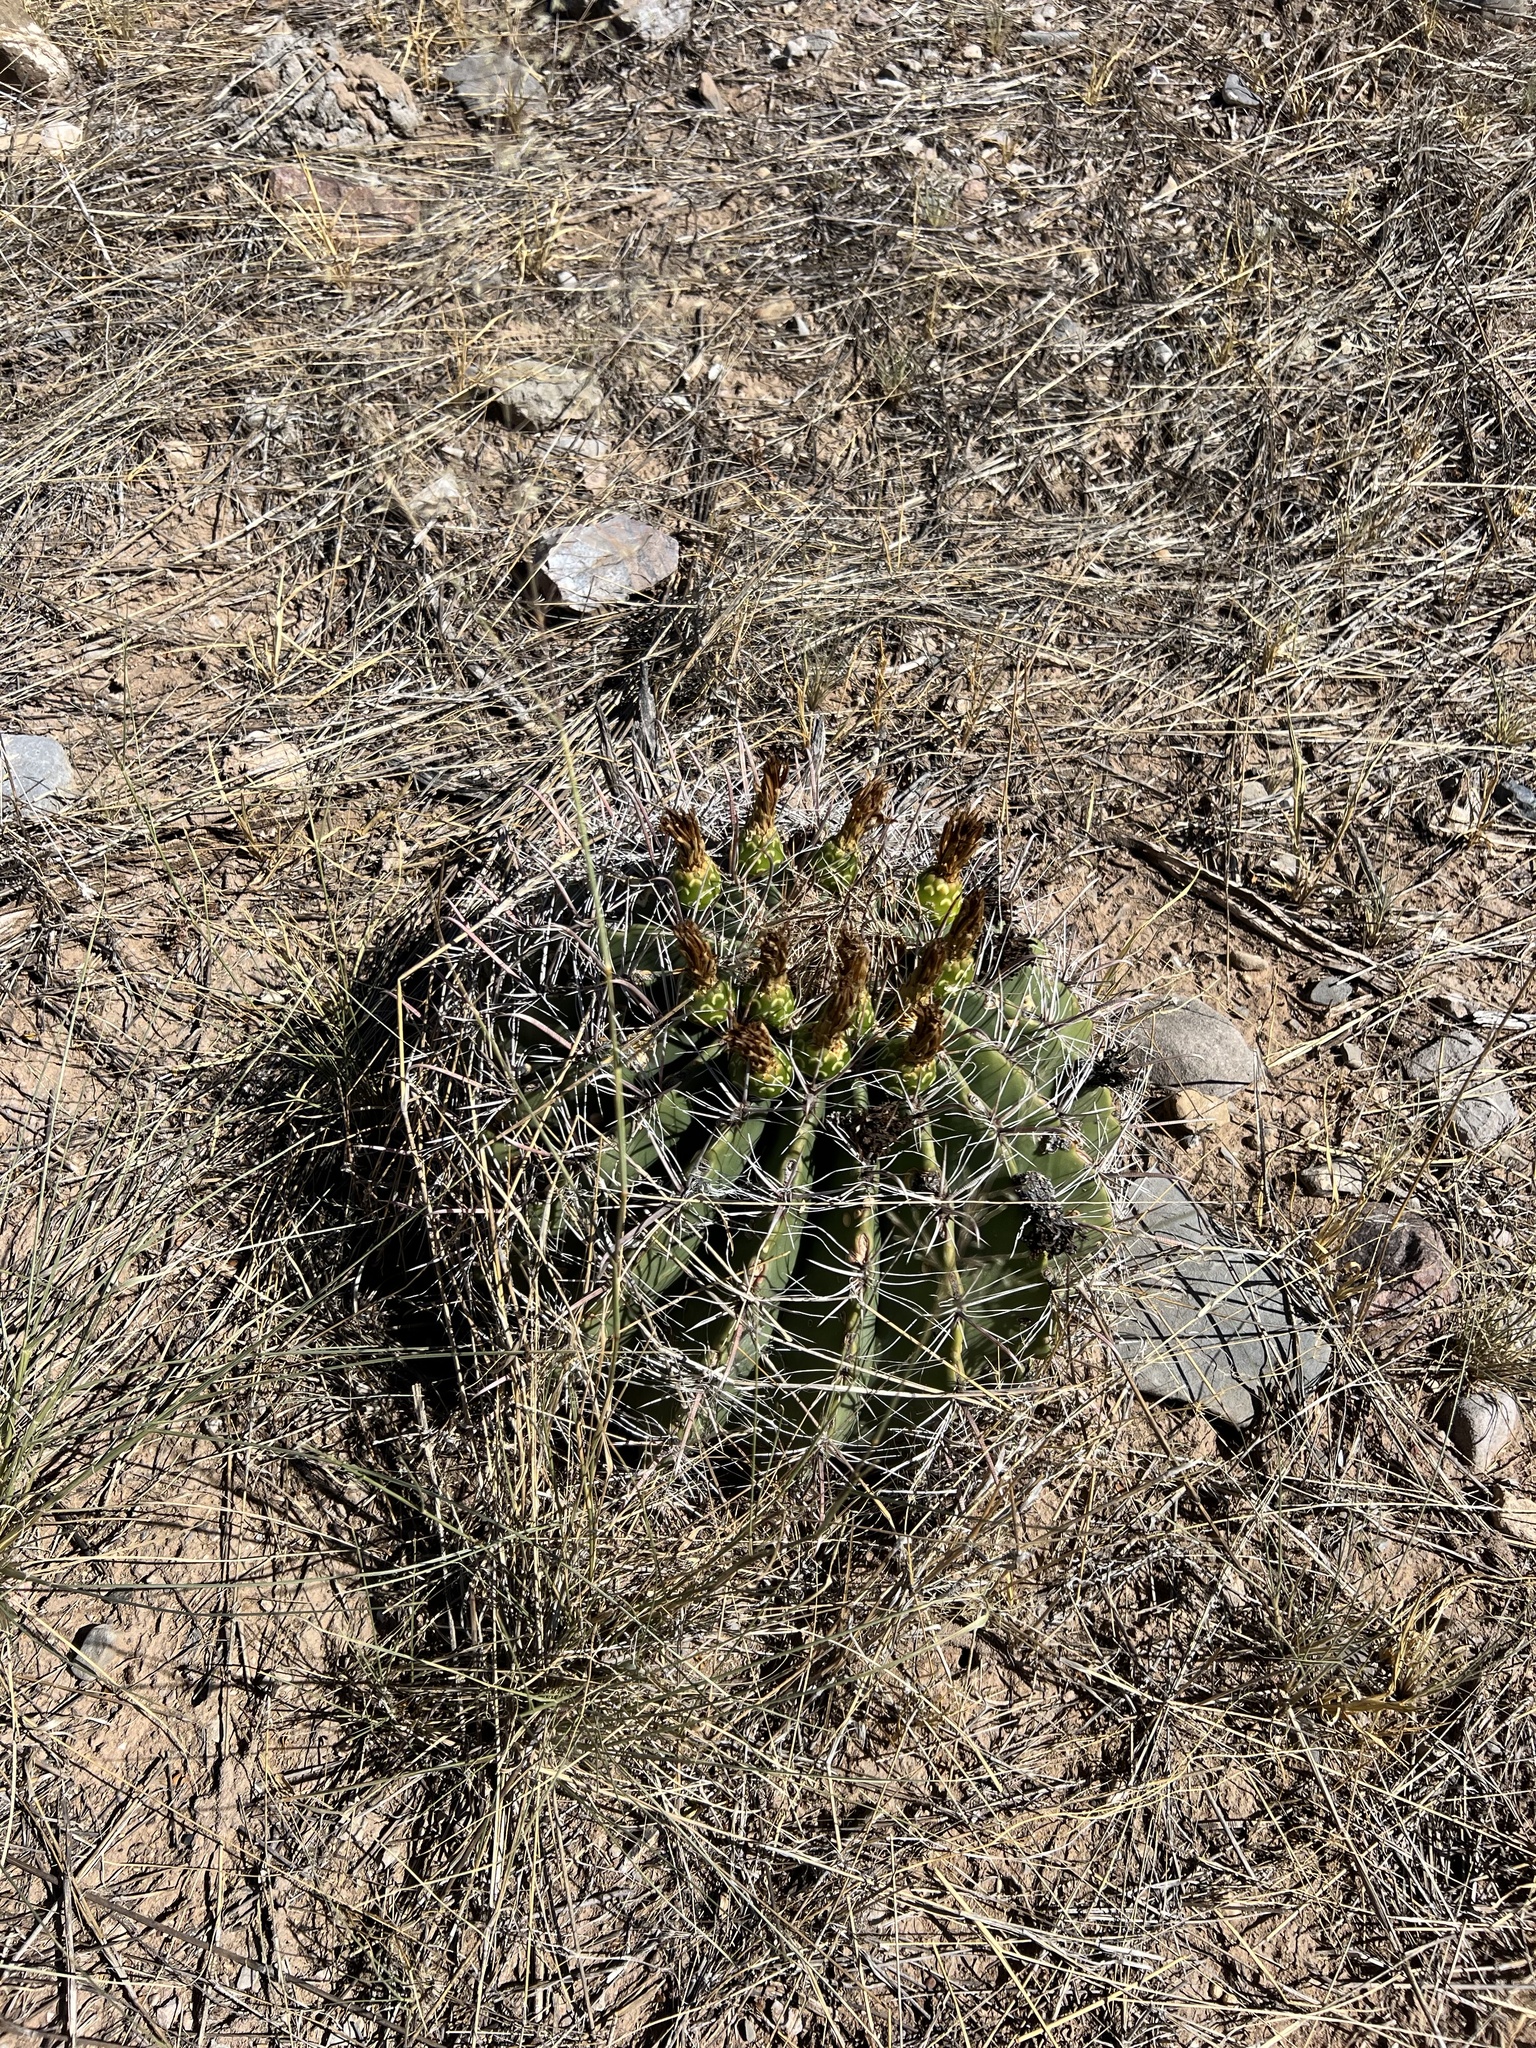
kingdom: Plantae
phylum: Tracheophyta
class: Magnoliopsida
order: Caryophyllales
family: Cactaceae
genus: Ferocactus
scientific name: Ferocactus wislizeni
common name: Candy barrel cactus
